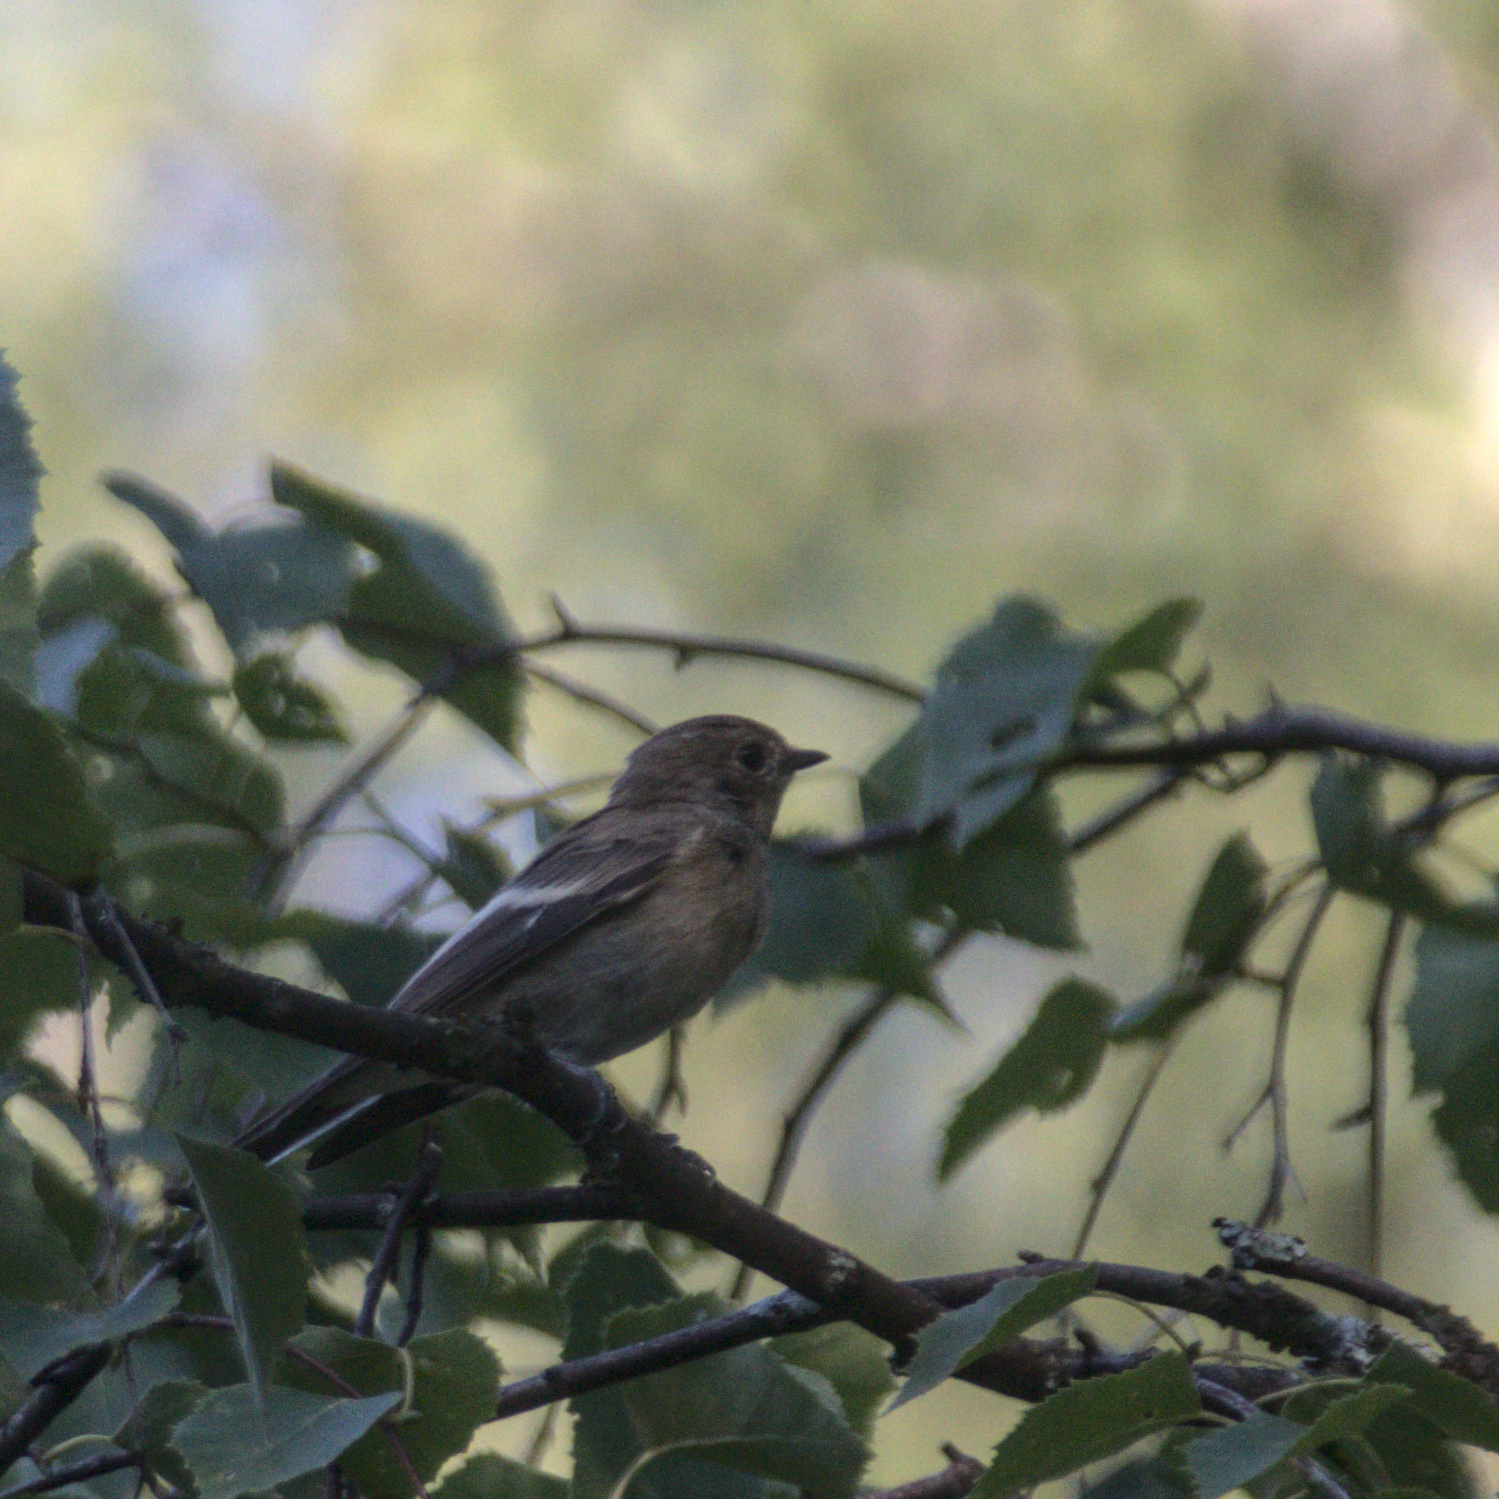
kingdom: Animalia
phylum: Chordata
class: Aves
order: Passeriformes
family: Muscicapidae
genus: Ficedula
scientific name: Ficedula hypoleuca
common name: European pied flycatcher
